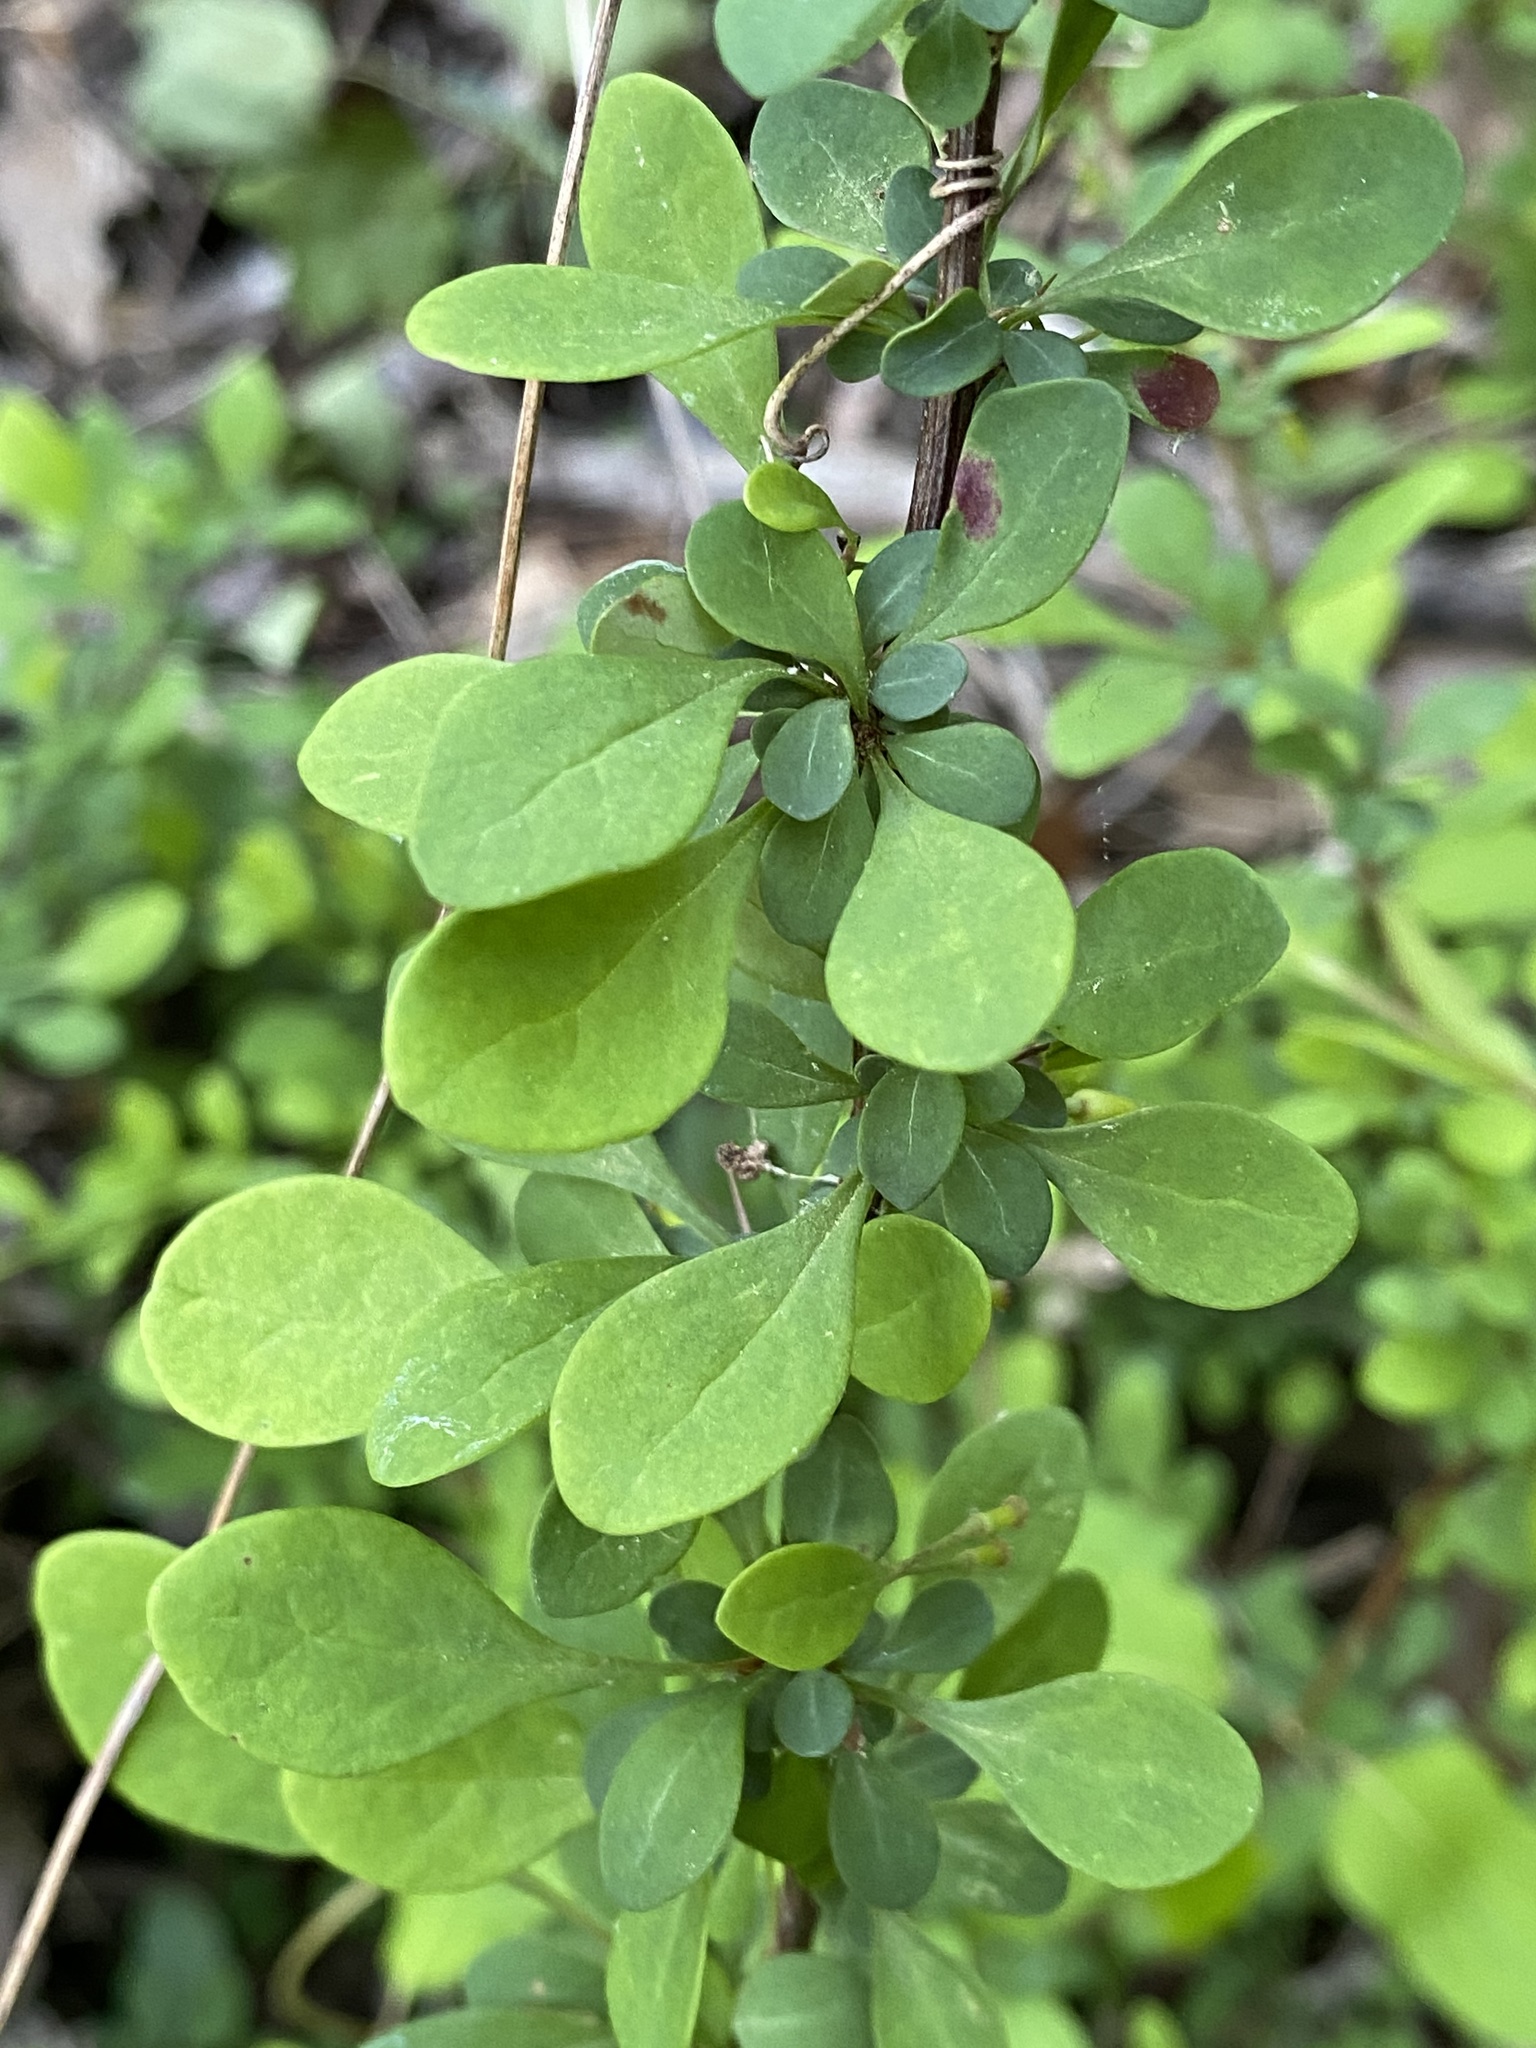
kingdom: Plantae
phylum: Tracheophyta
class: Magnoliopsida
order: Ranunculales
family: Berberidaceae
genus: Berberis
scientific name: Berberis thunbergii
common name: Japanese barberry
